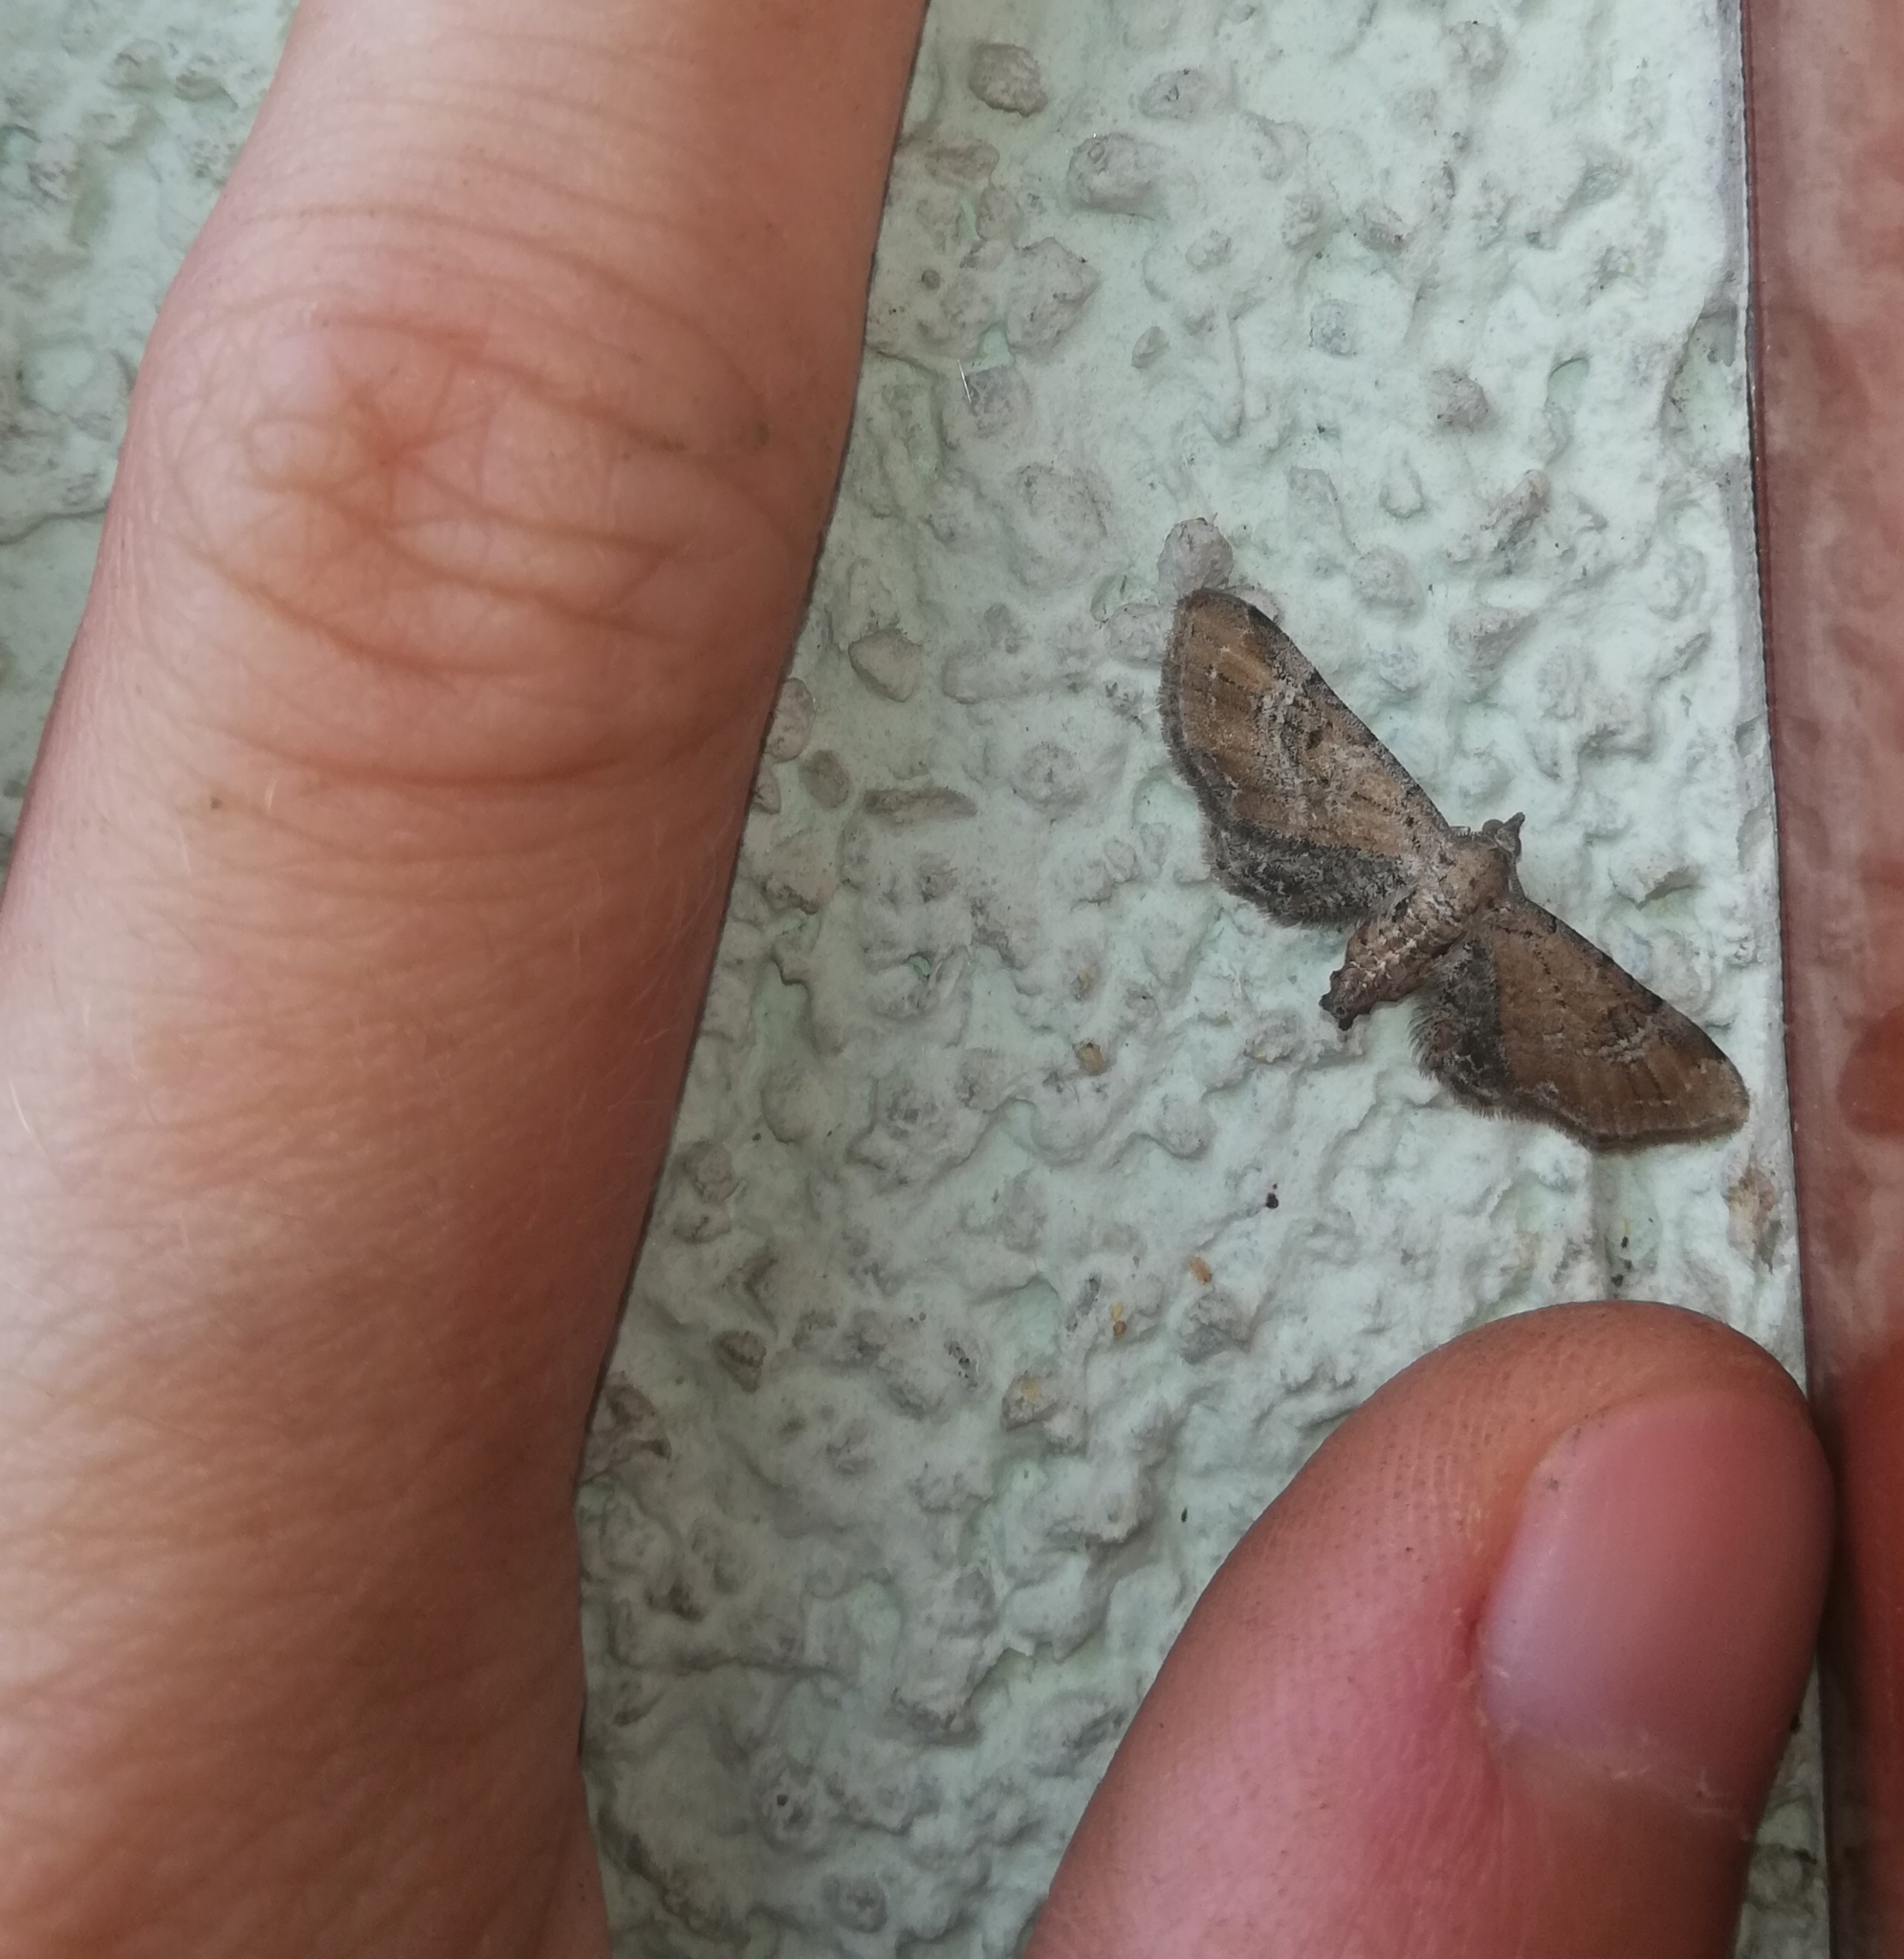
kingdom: Animalia
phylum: Arthropoda
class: Insecta
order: Lepidoptera
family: Geometridae
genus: Eupithecia
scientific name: Eupithecia simpliciata
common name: Plain pug
